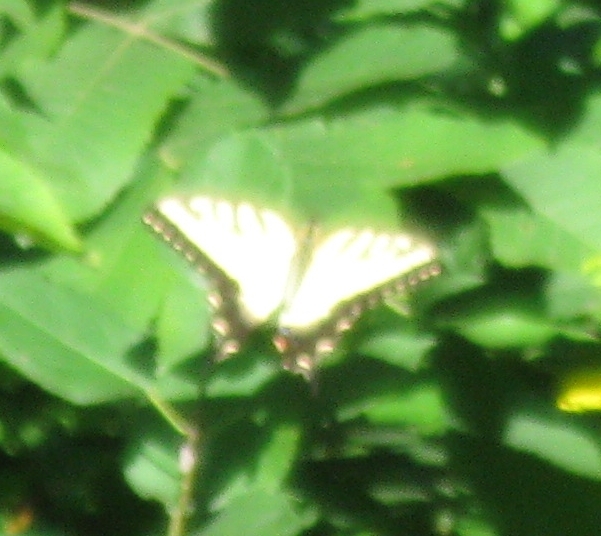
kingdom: Animalia
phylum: Arthropoda
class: Insecta
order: Lepidoptera
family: Papilionidae
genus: Papilio
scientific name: Papilio glaucus
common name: Tiger swallowtail
